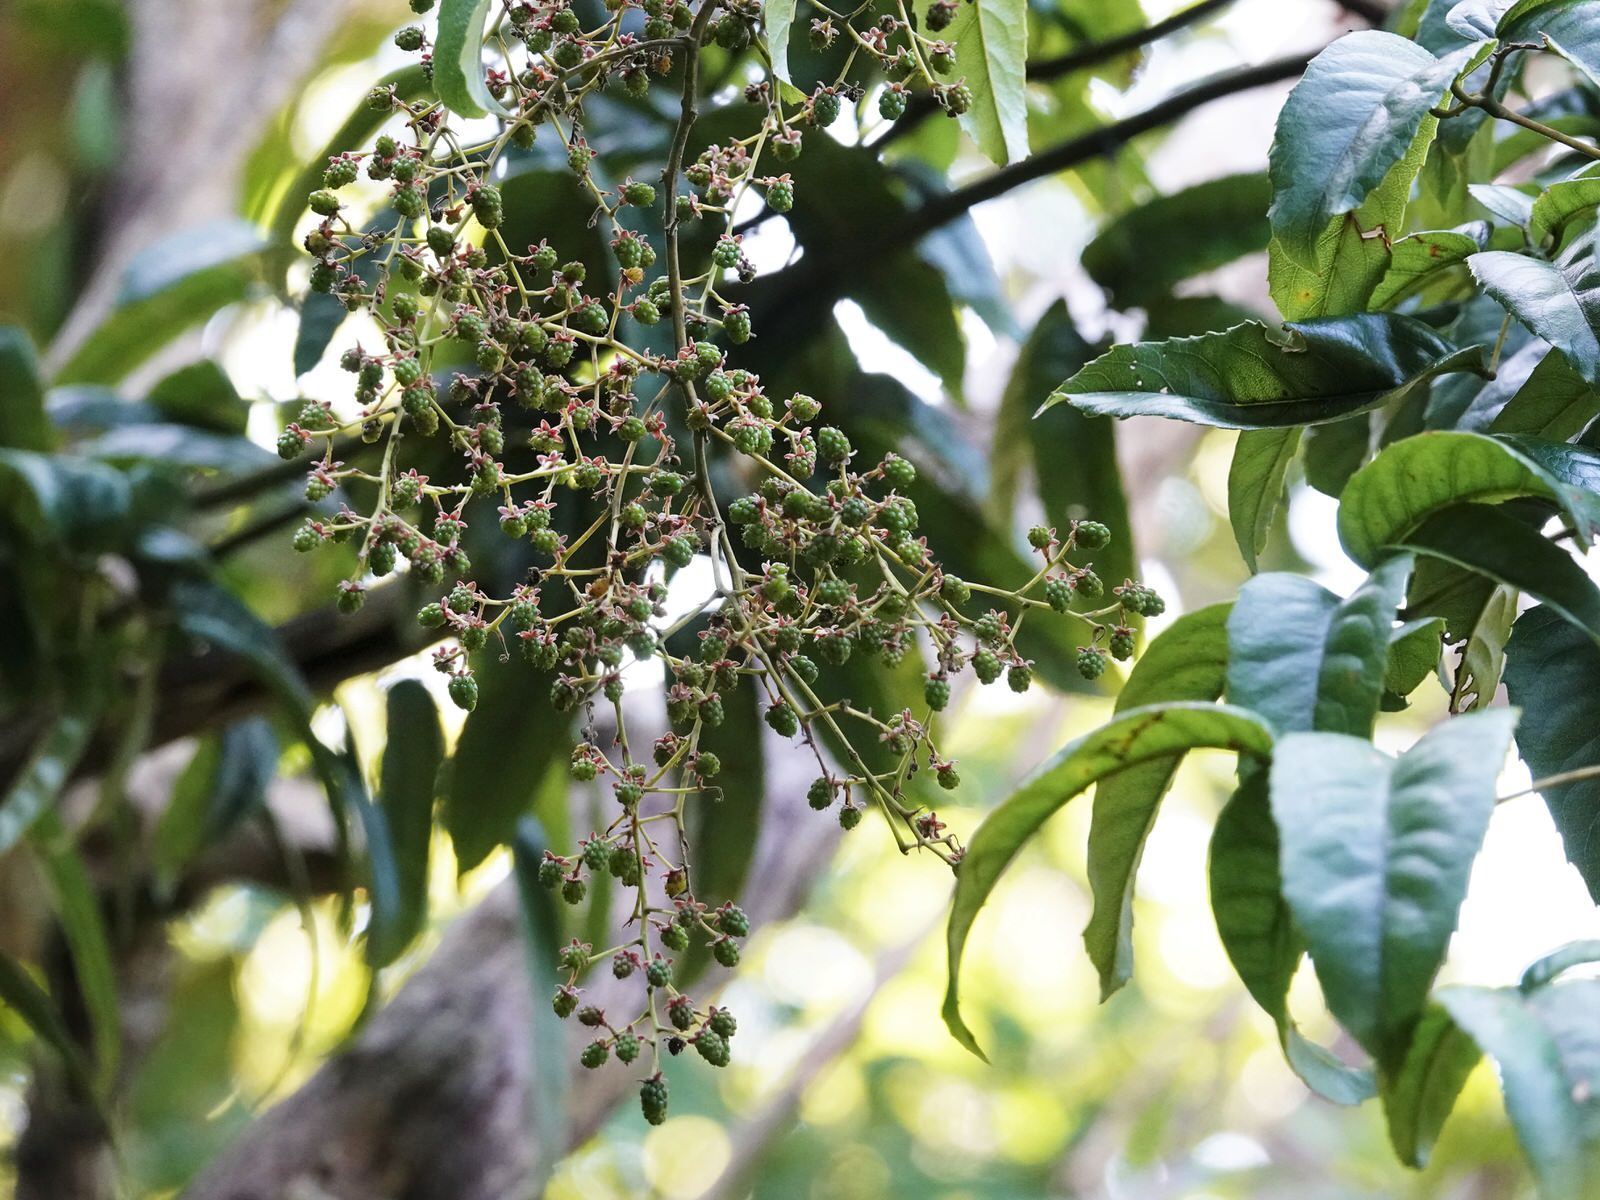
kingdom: Plantae
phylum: Tracheophyta
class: Magnoliopsida
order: Rosales
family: Rosaceae
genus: Rubus
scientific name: Rubus cissoides
